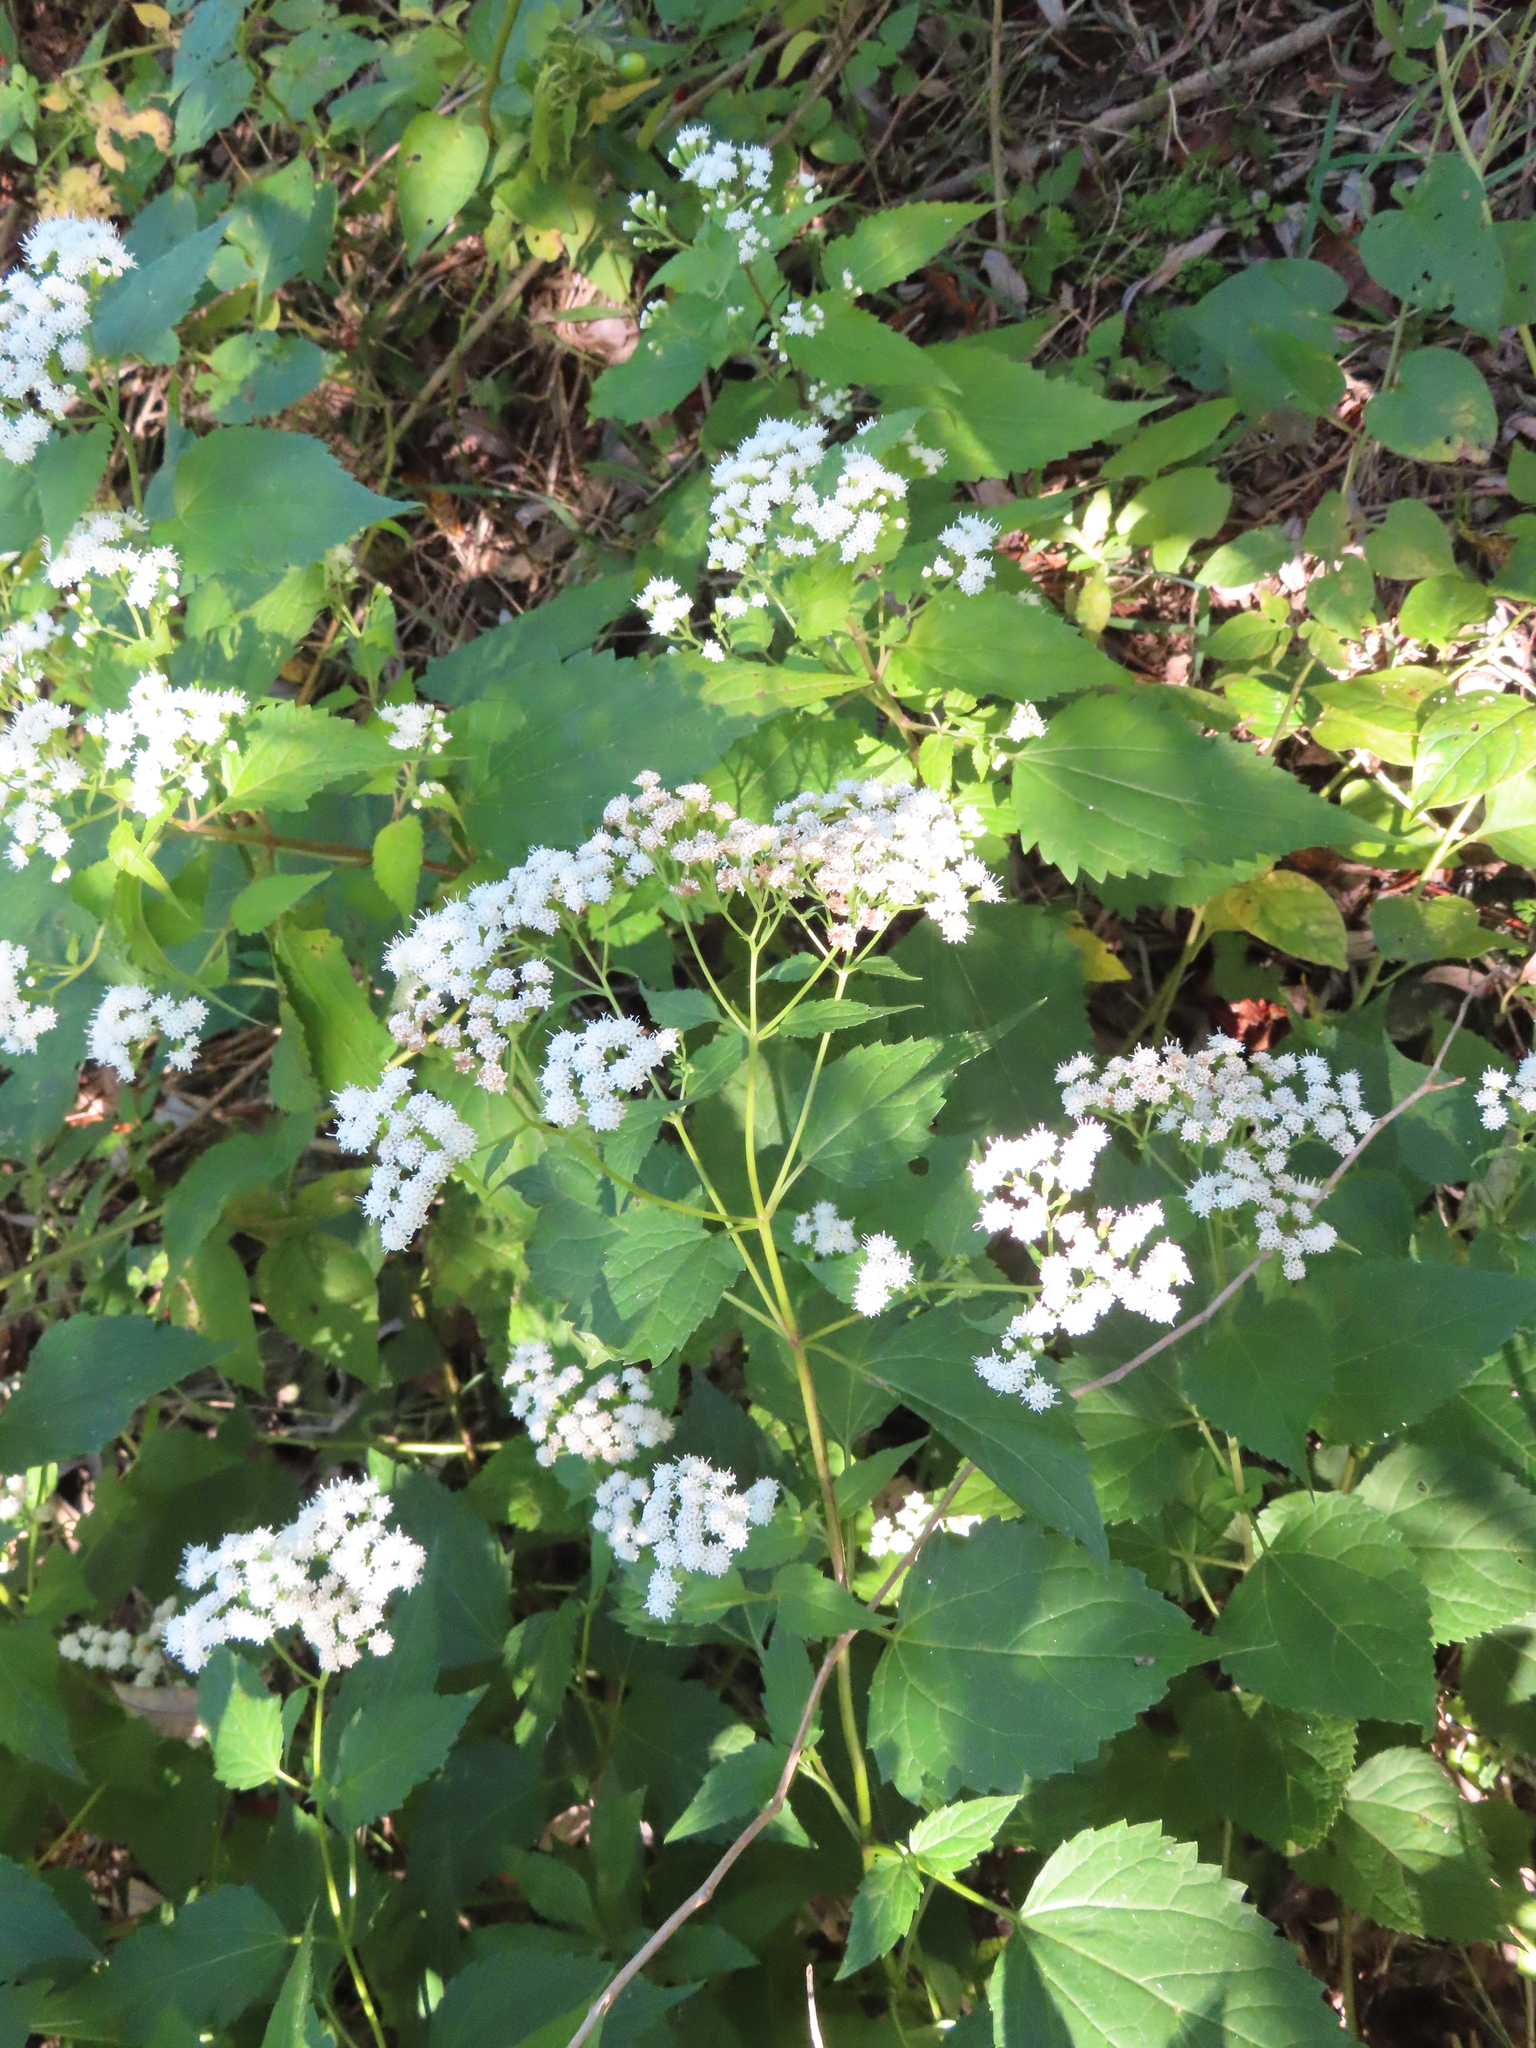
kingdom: Plantae
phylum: Tracheophyta
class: Magnoliopsida
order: Asterales
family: Asteraceae
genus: Ageratina
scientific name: Ageratina altissima
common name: White snakeroot
